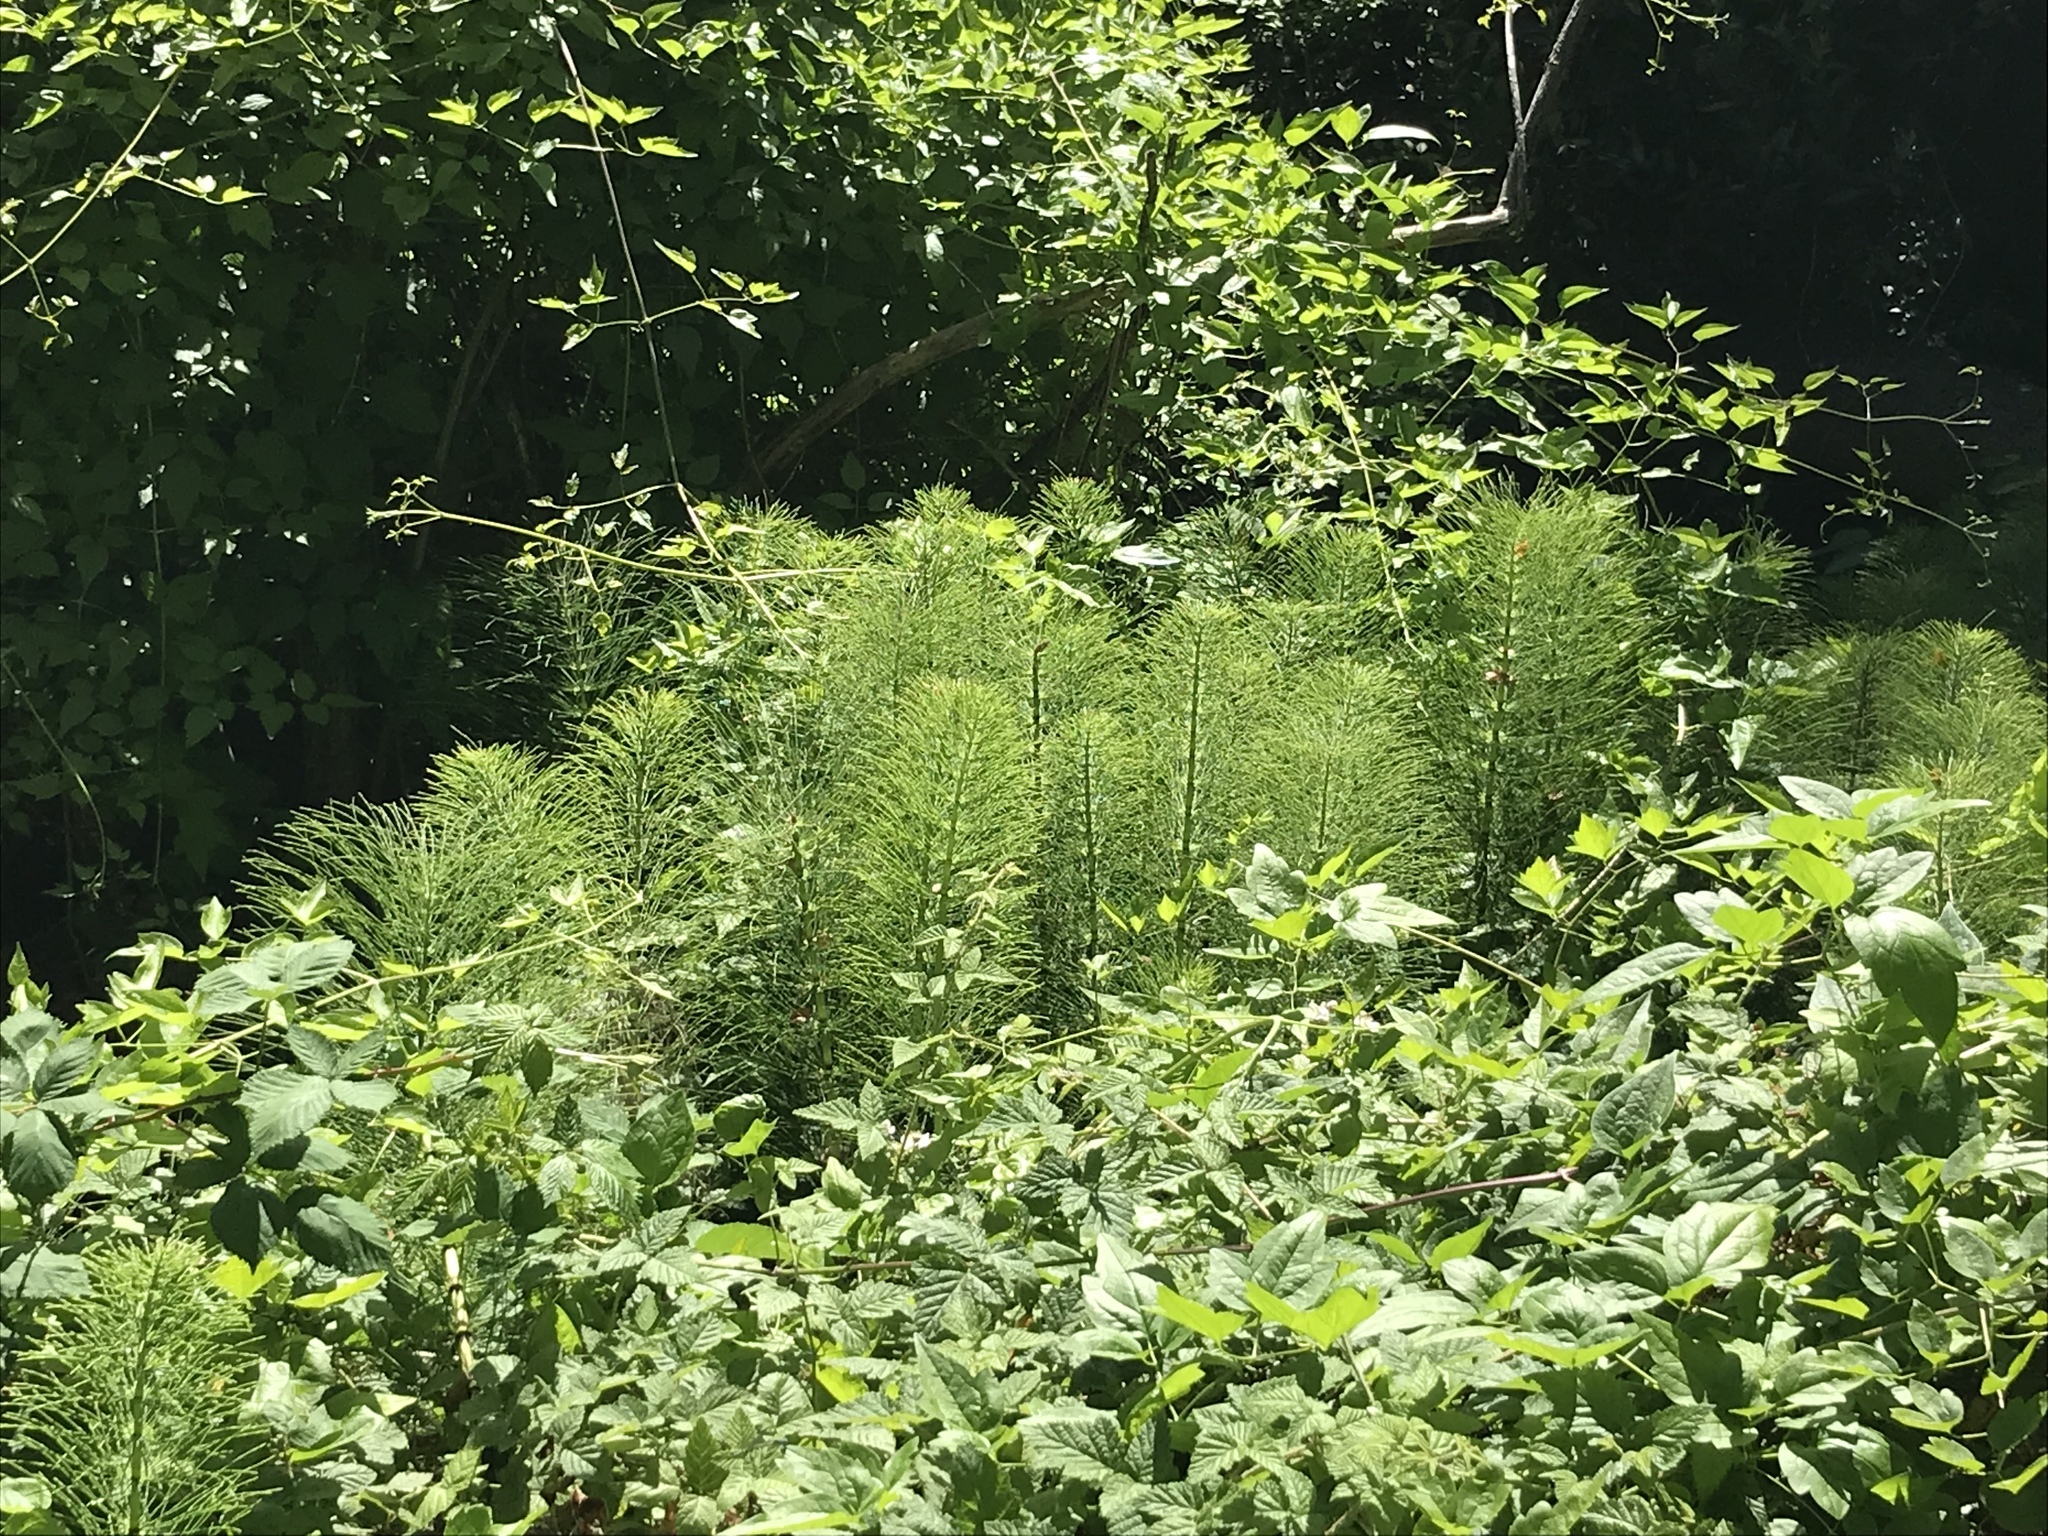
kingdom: Plantae
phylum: Tracheophyta
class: Polypodiopsida
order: Equisetales
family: Equisetaceae
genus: Equisetum
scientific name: Equisetum telmateia
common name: Great horsetail
